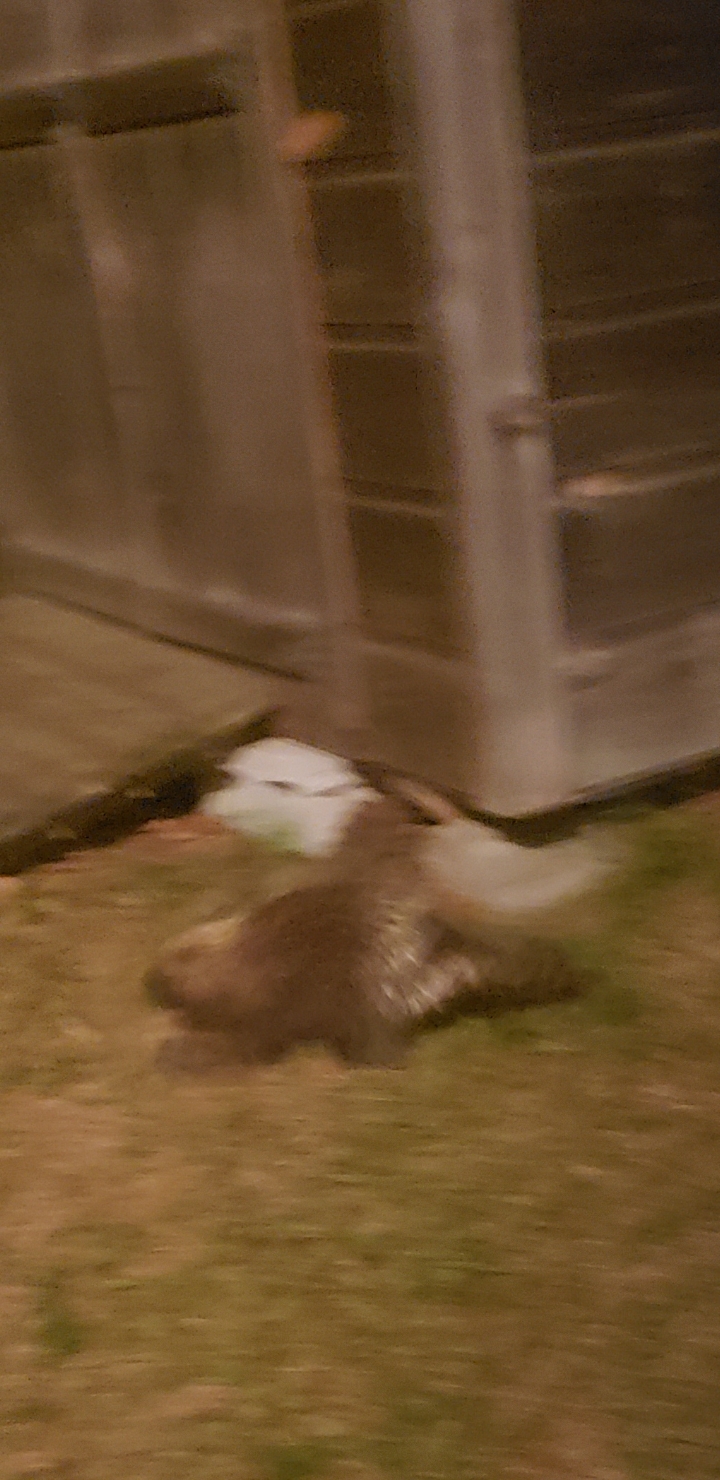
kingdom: Animalia
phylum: Chordata
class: Mammalia
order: Rodentia
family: Erethizontidae
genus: Erethizon
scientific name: Erethizon dorsatus
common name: North american porcupine
